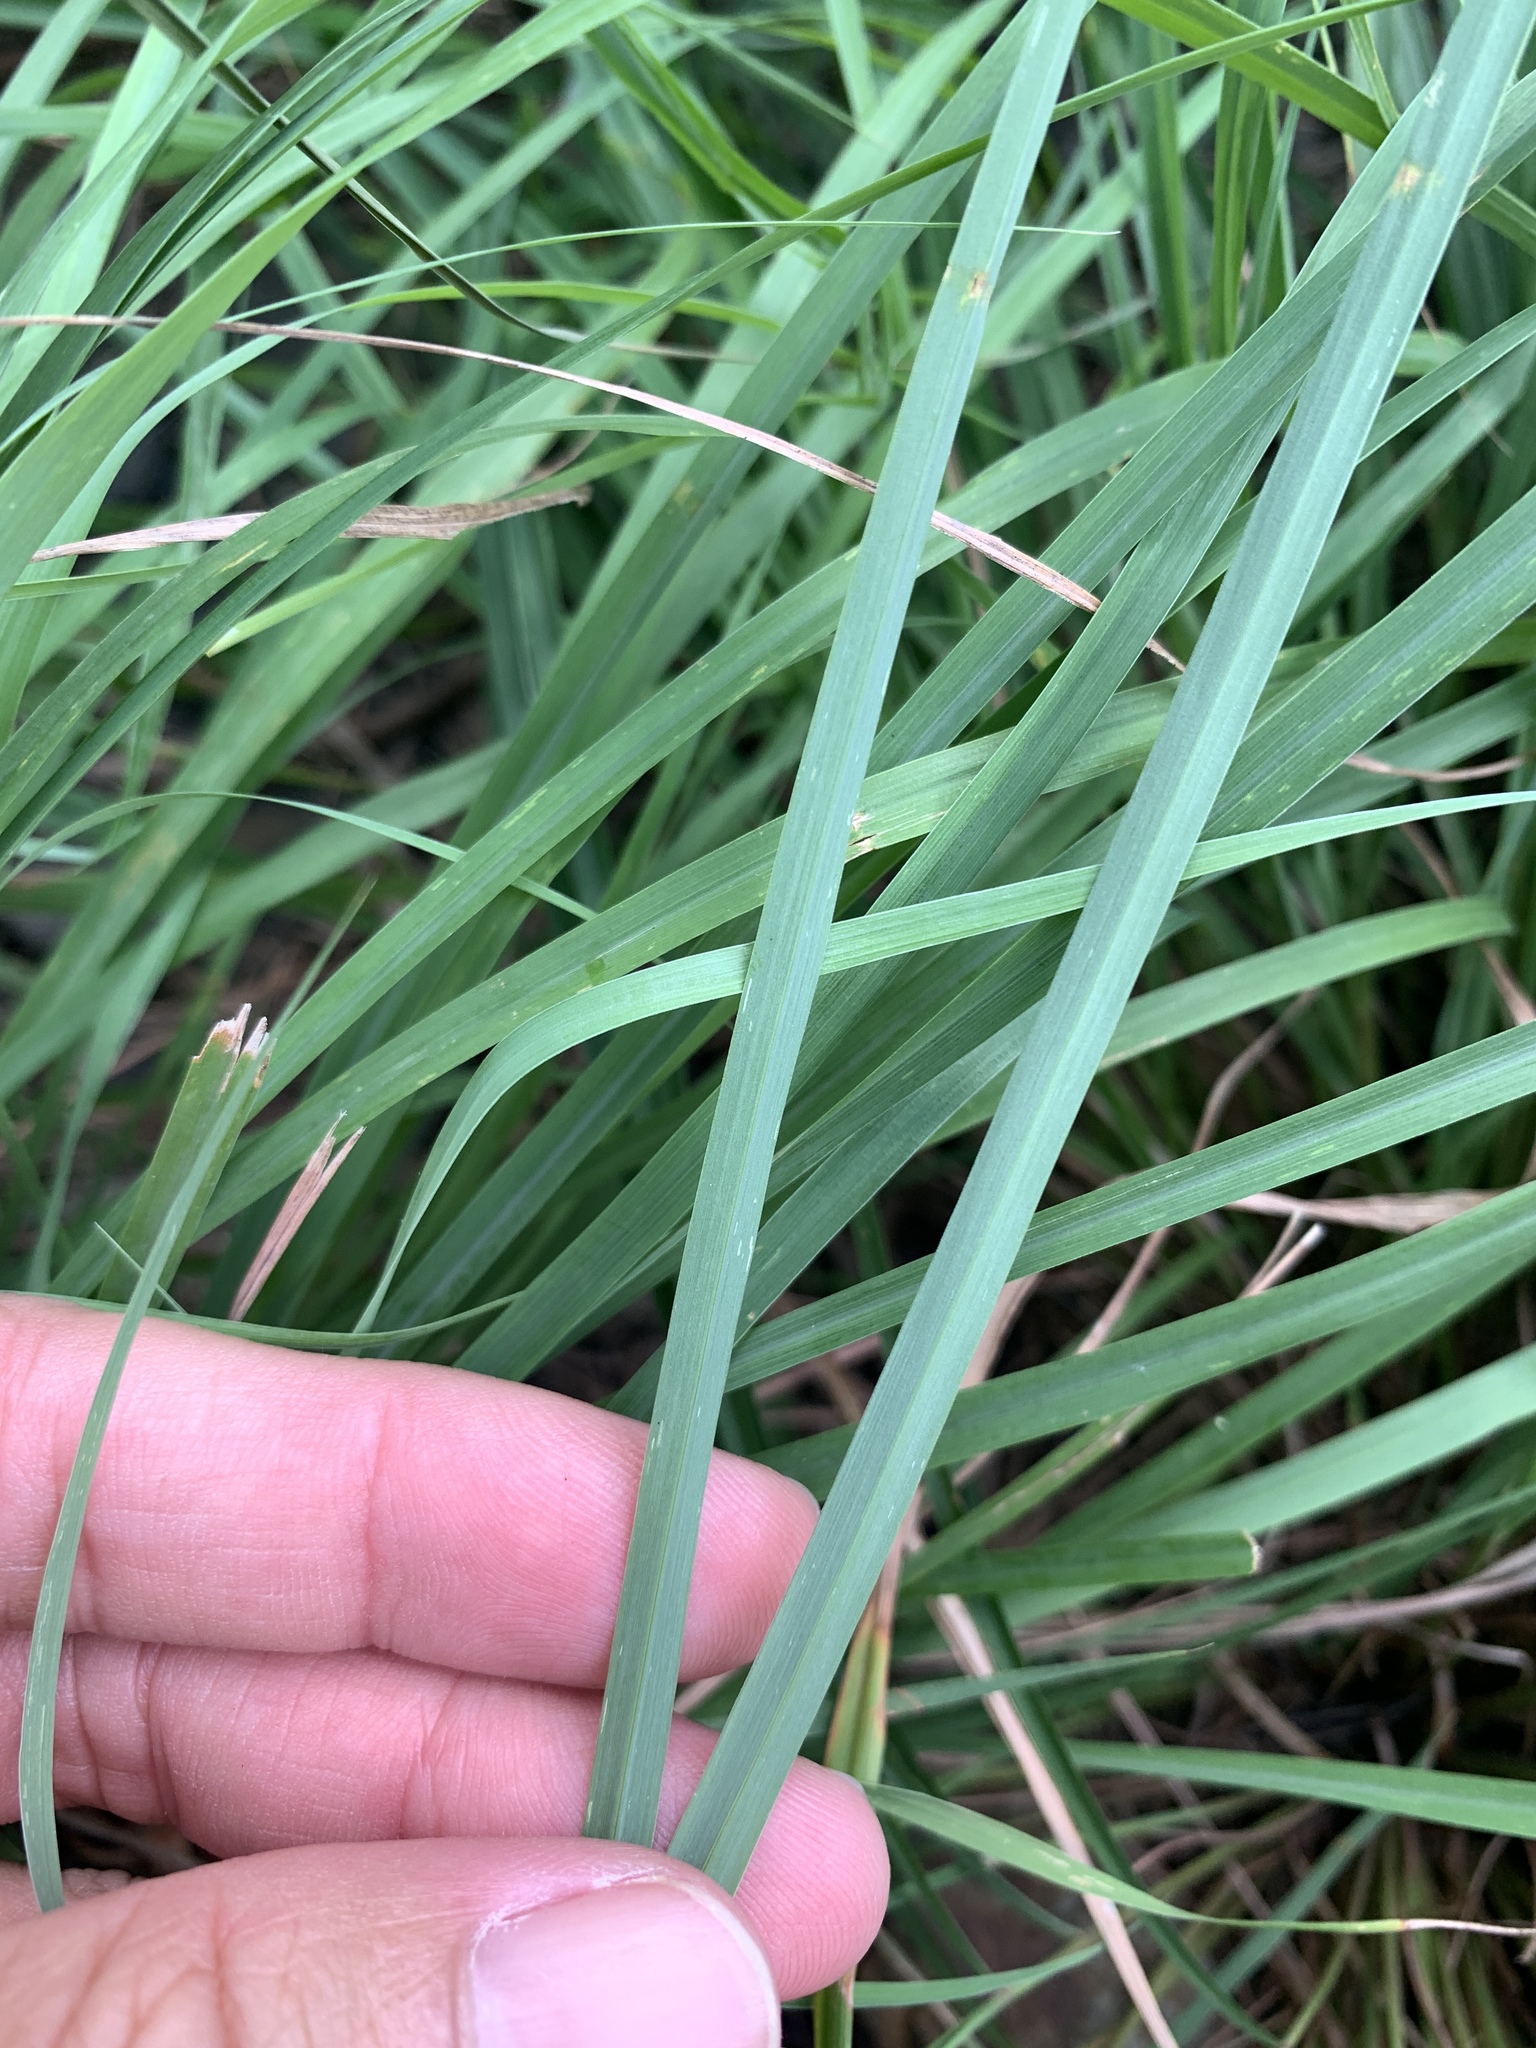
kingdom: Plantae
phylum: Tracheophyta
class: Liliopsida
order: Poales
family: Poaceae
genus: Cymbopogon
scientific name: Cymbopogon tortilis
